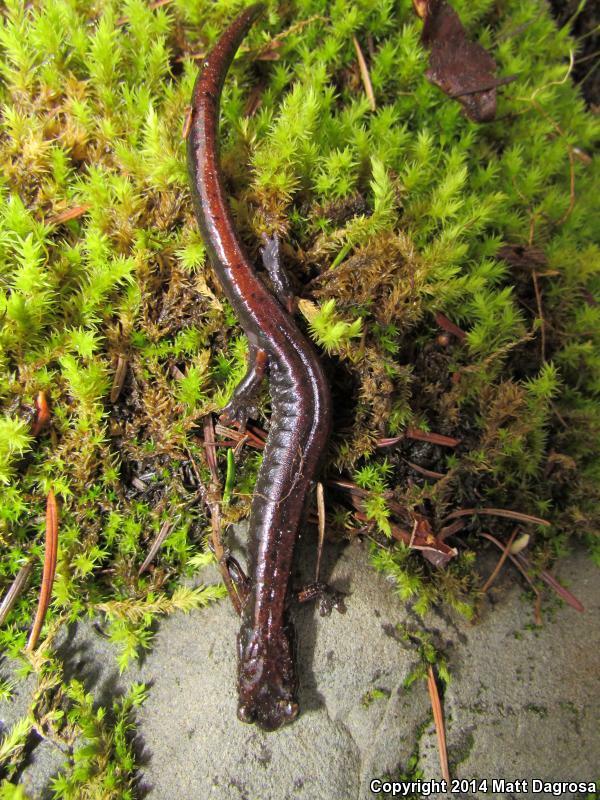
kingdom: Animalia
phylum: Chordata
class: Amphibia
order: Caudata
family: Plethodontidae
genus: Plethodon
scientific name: Plethodon vehiculum
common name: Western red-backed salamander
